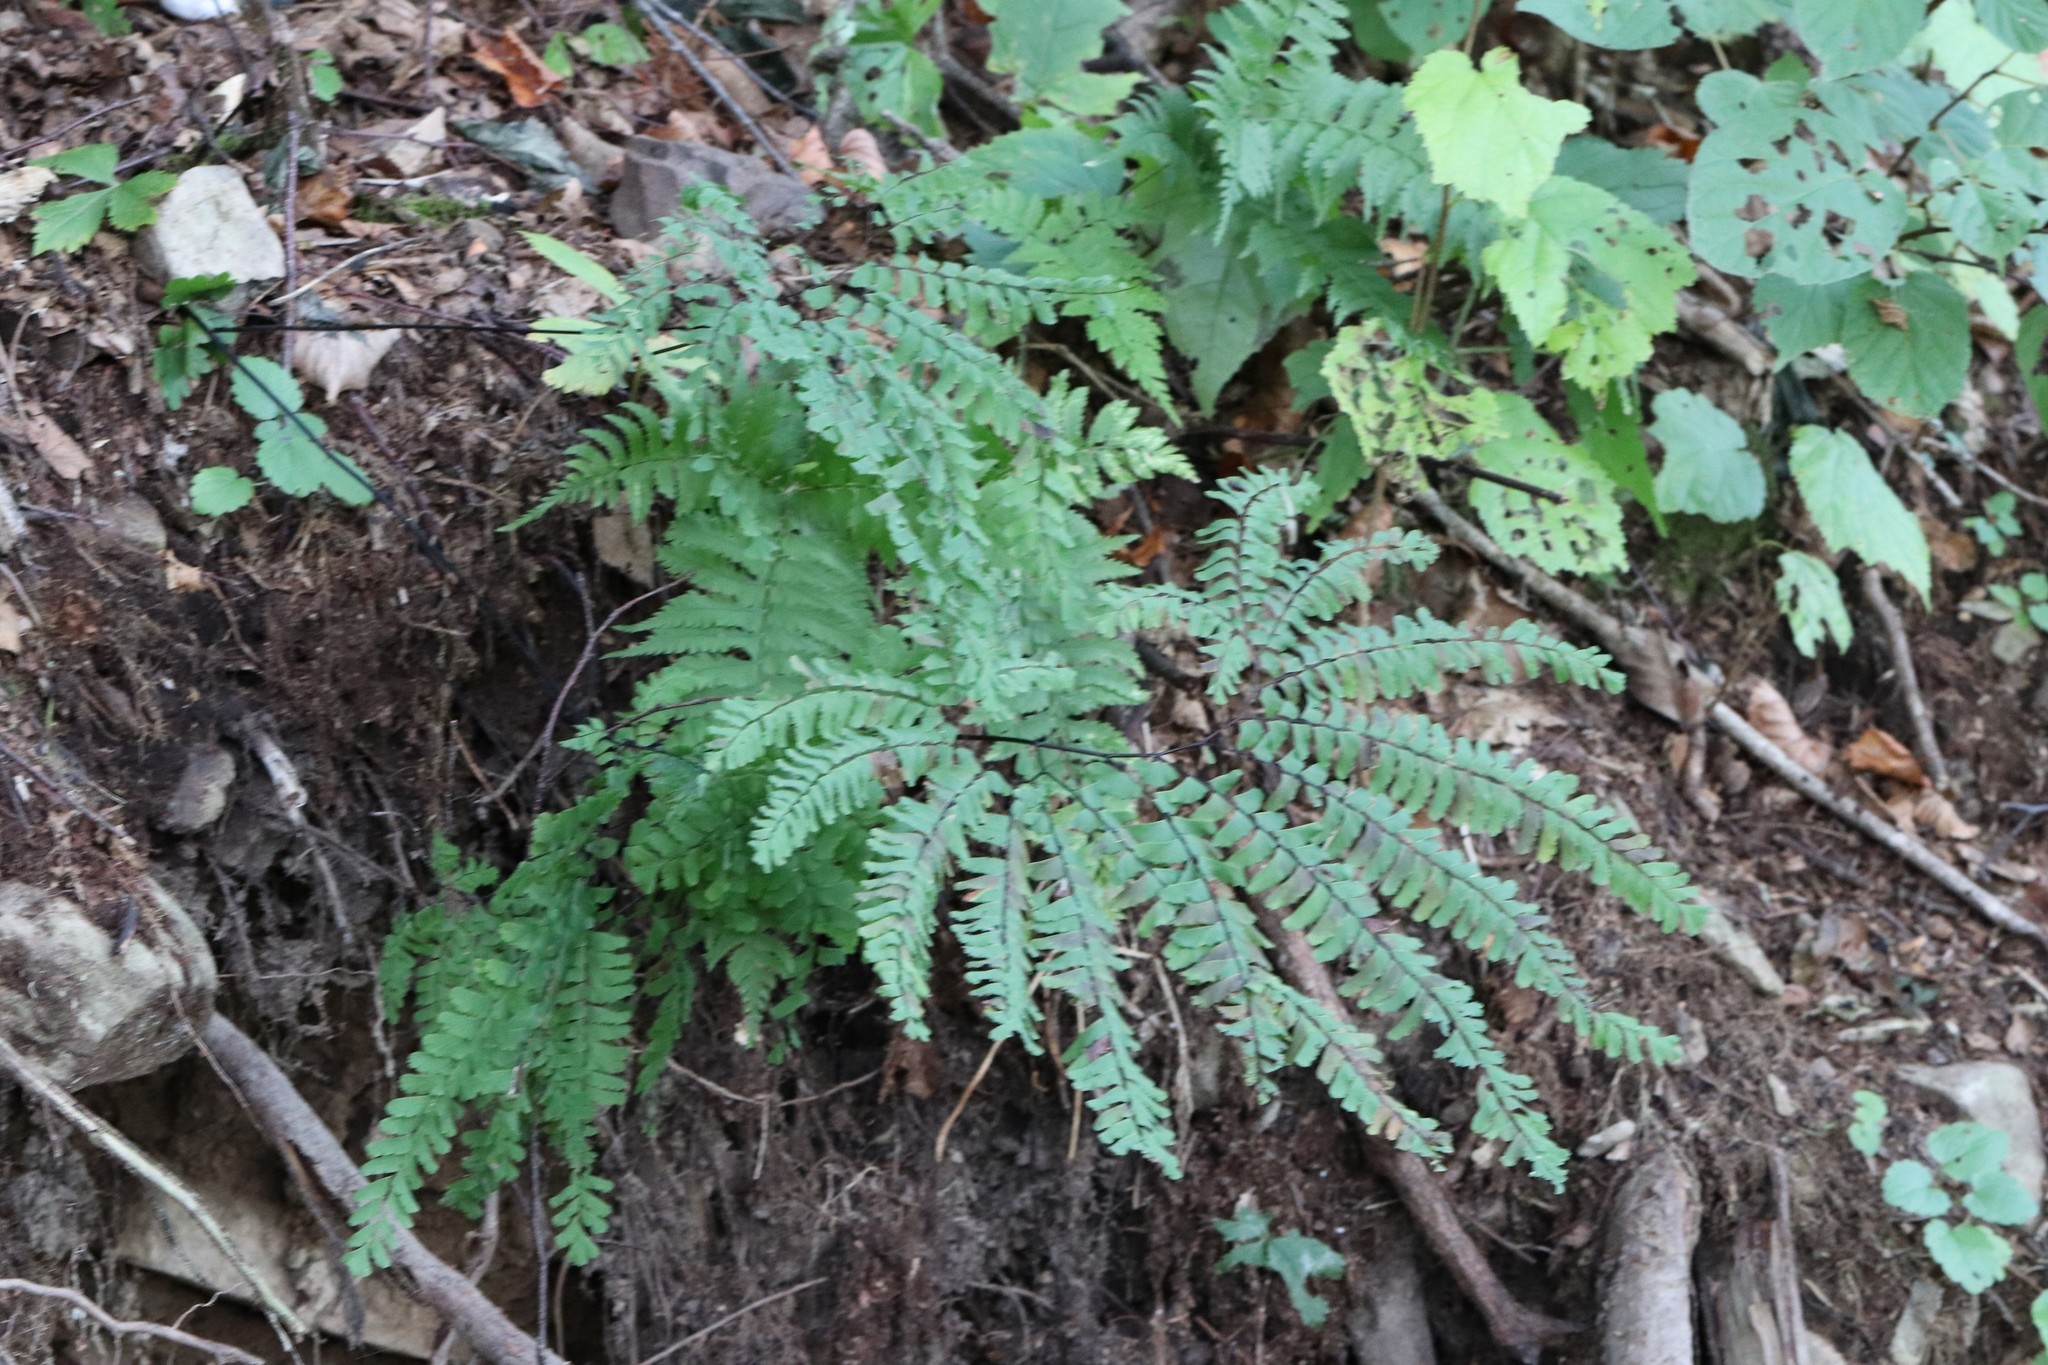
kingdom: Plantae
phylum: Tracheophyta
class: Polypodiopsida
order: Polypodiales
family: Pteridaceae
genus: Adiantum
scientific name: Adiantum pedatum
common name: Five-finger fern
